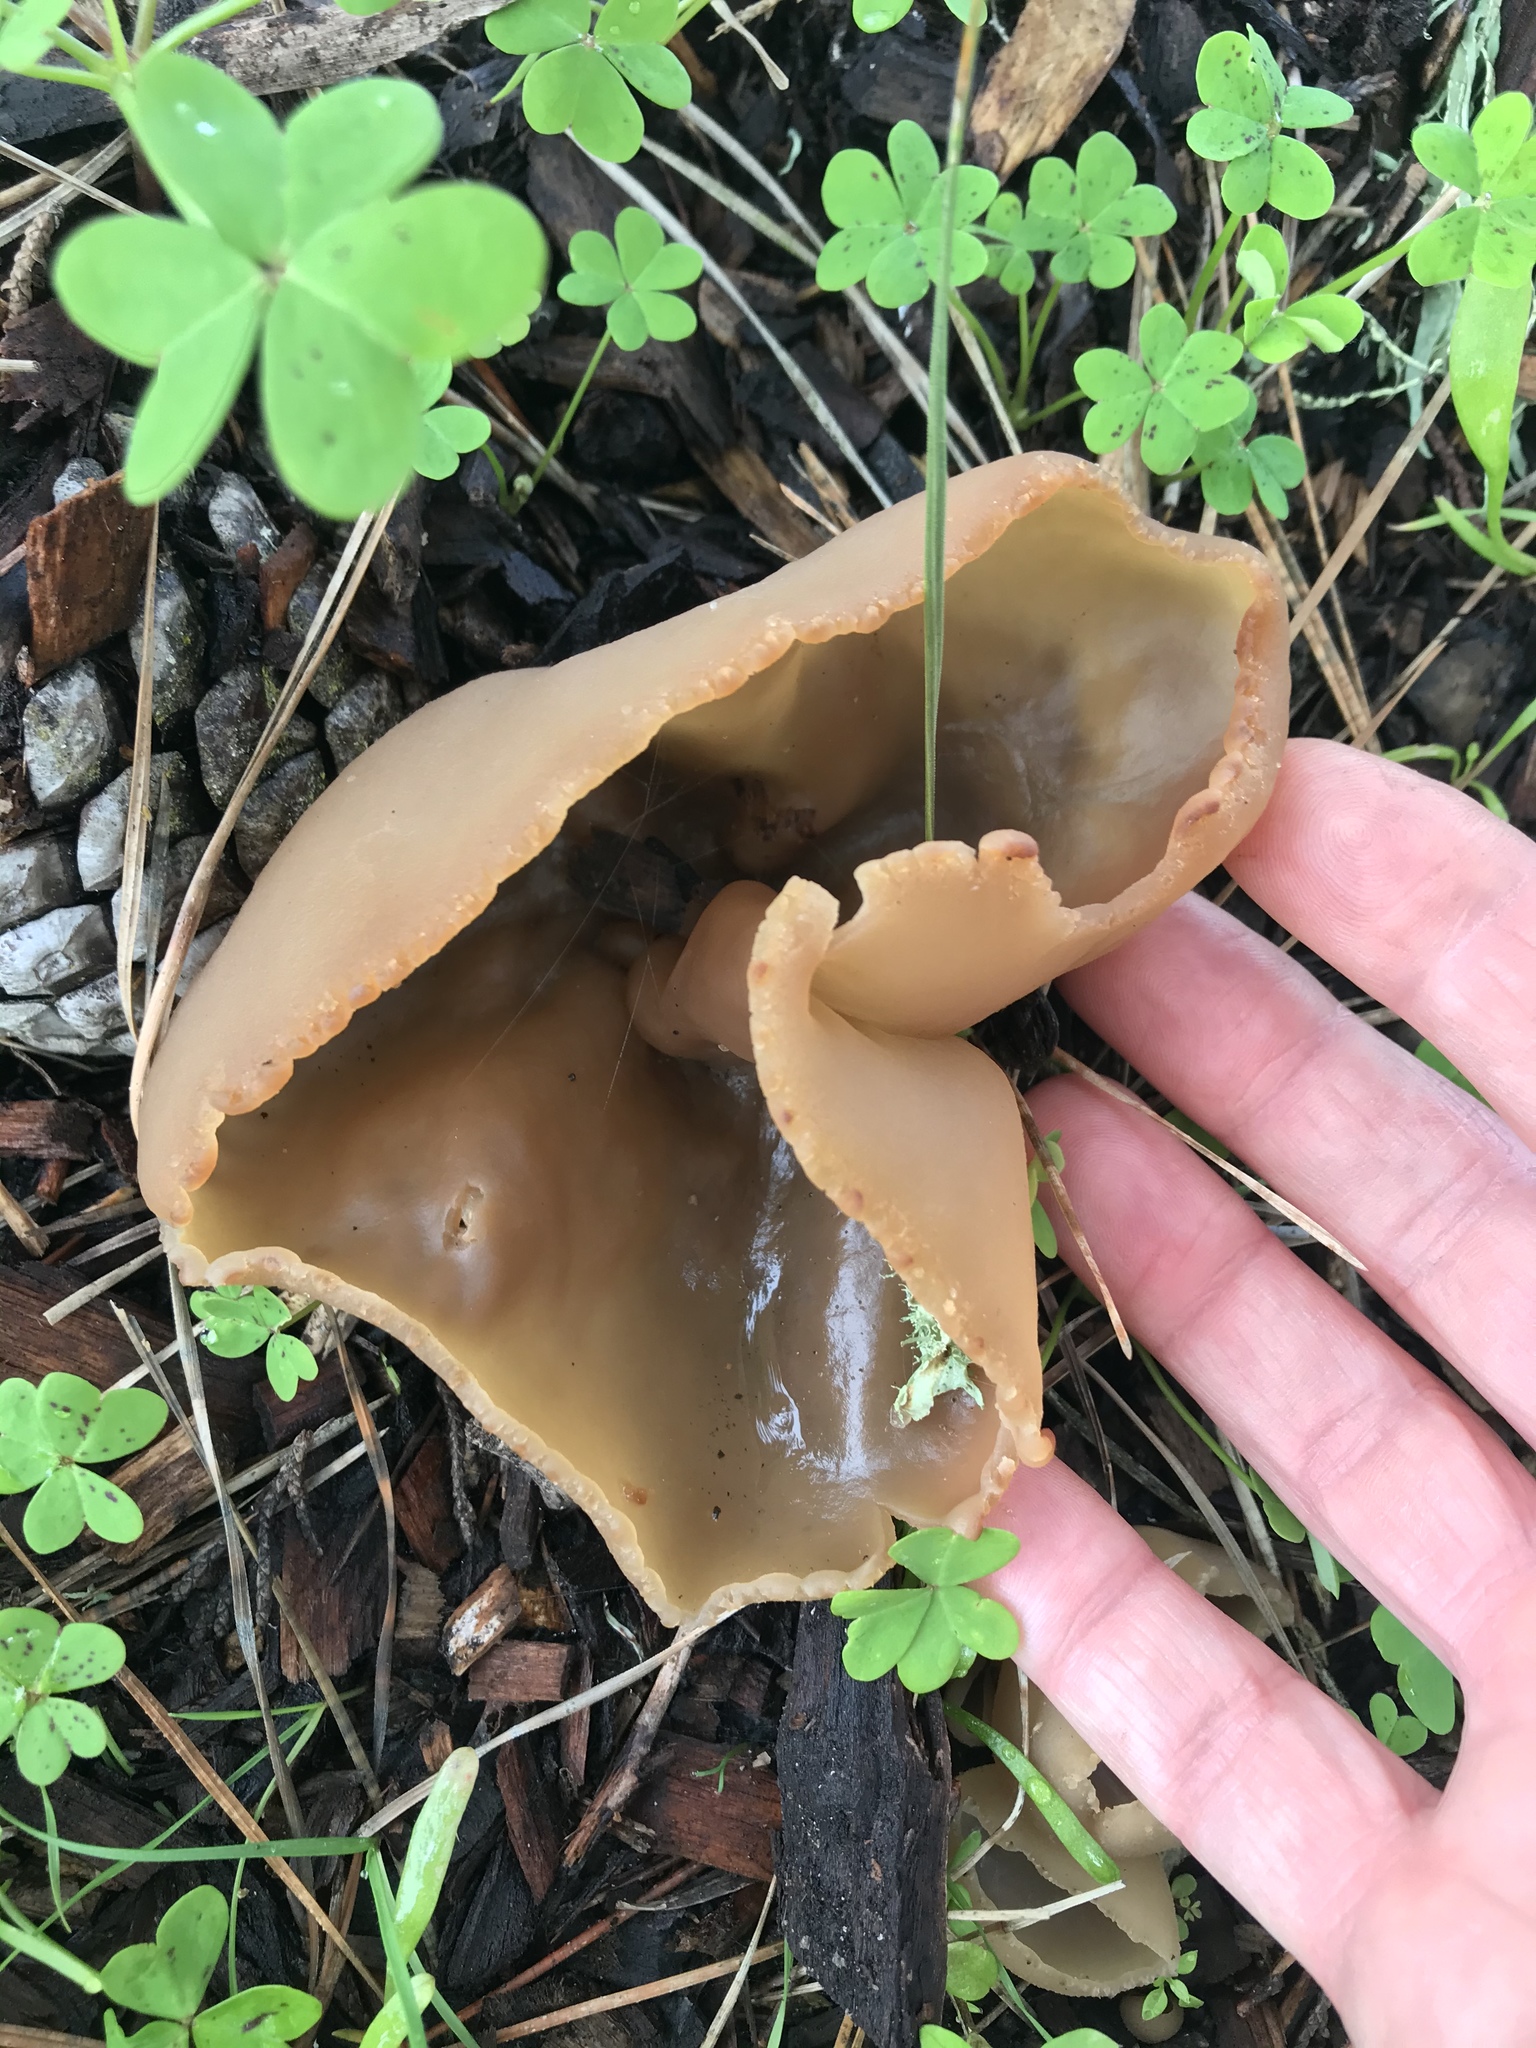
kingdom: Fungi
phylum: Ascomycota
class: Pezizomycetes
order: Pezizales
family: Pezizaceae
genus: Peziza
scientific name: Peziza varia
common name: Layered cup
